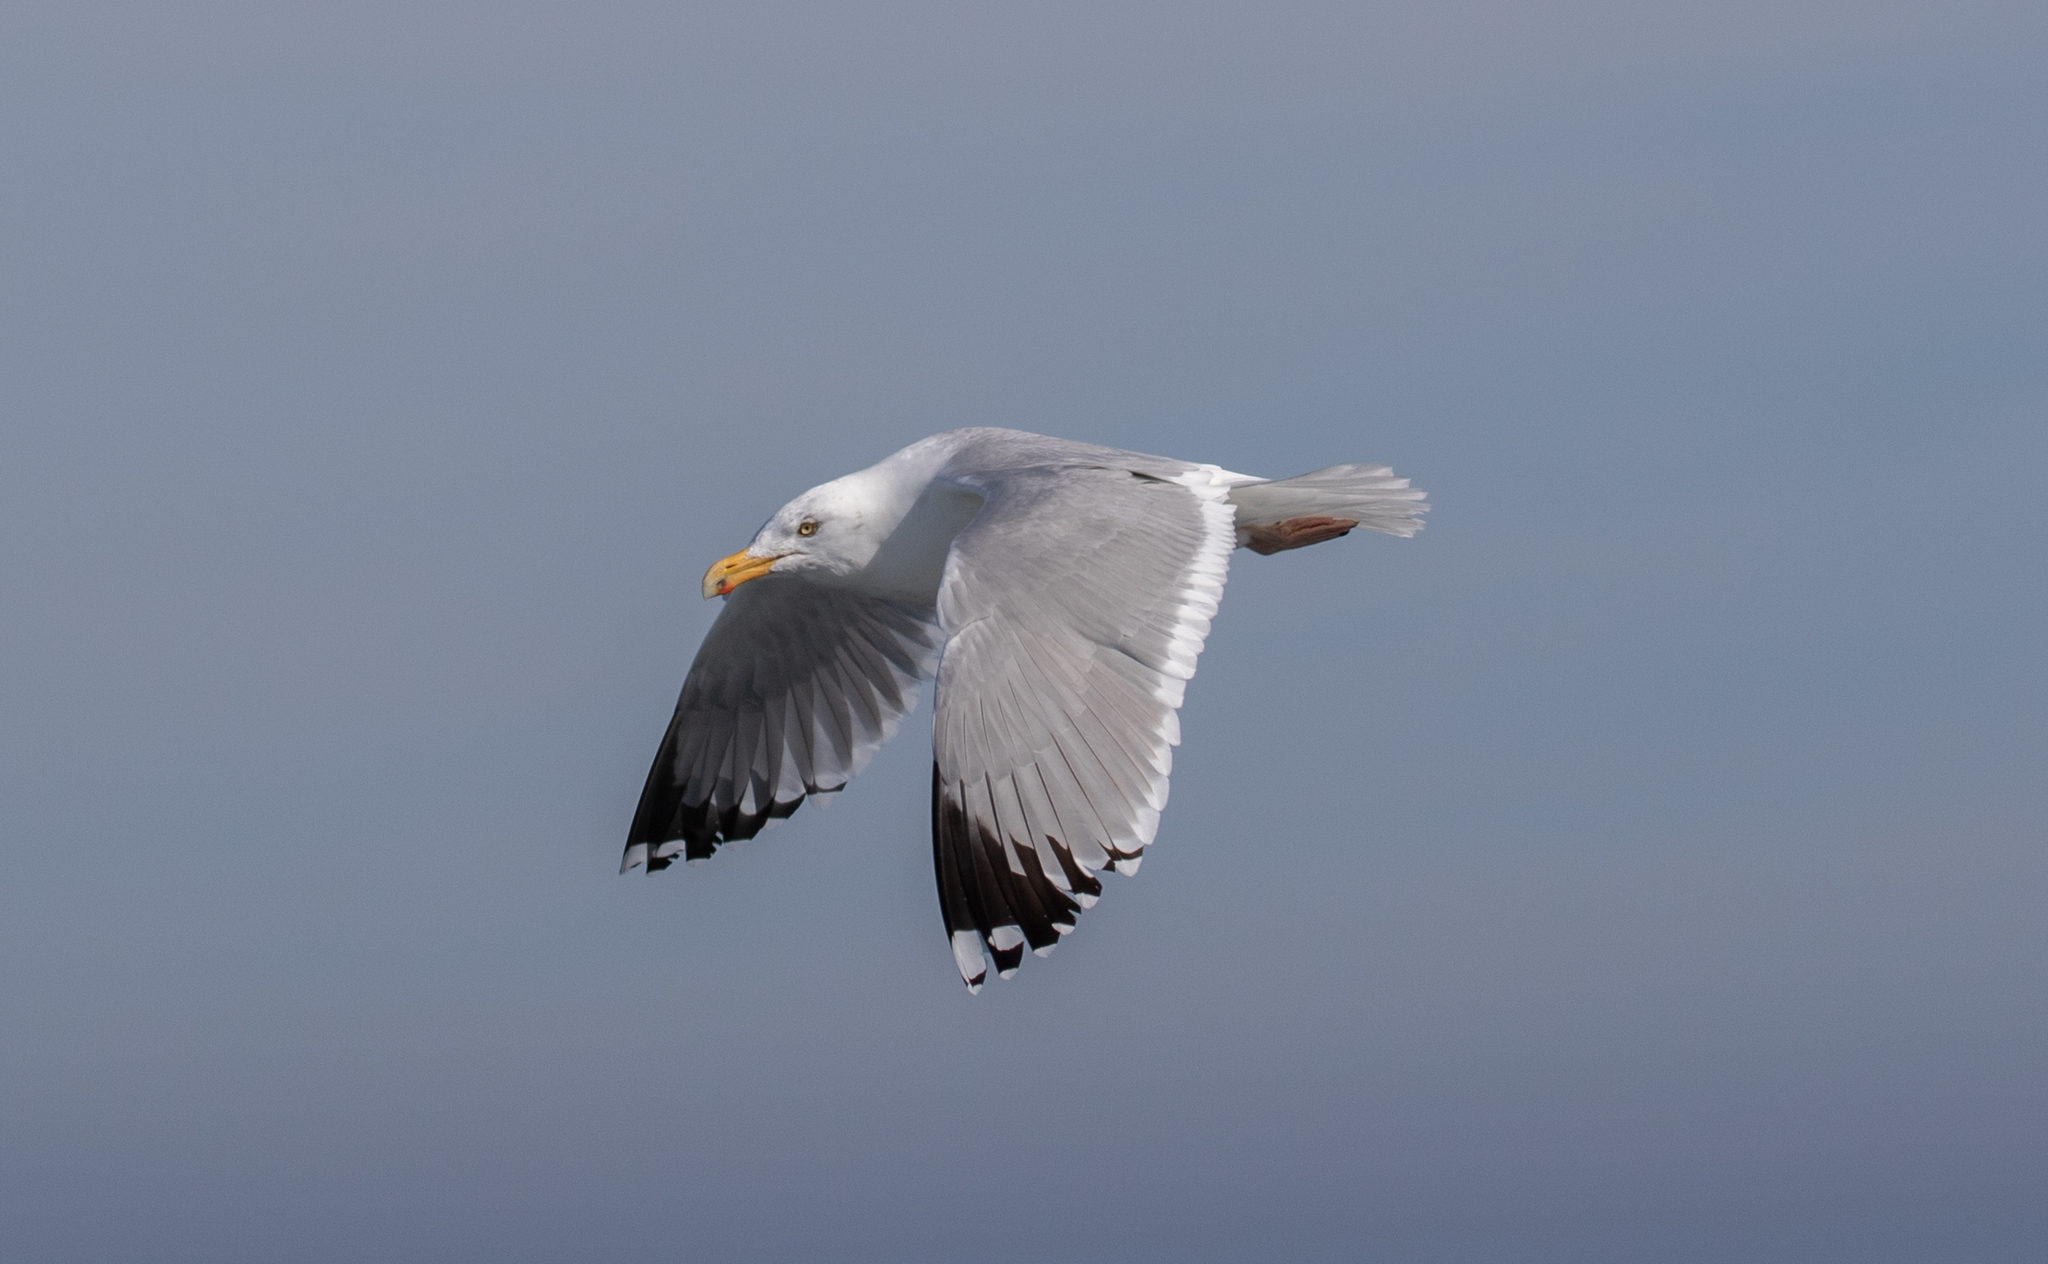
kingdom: Animalia
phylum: Chordata
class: Aves
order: Charadriiformes
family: Laridae
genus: Larus
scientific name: Larus argentatus
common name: Herring gull
